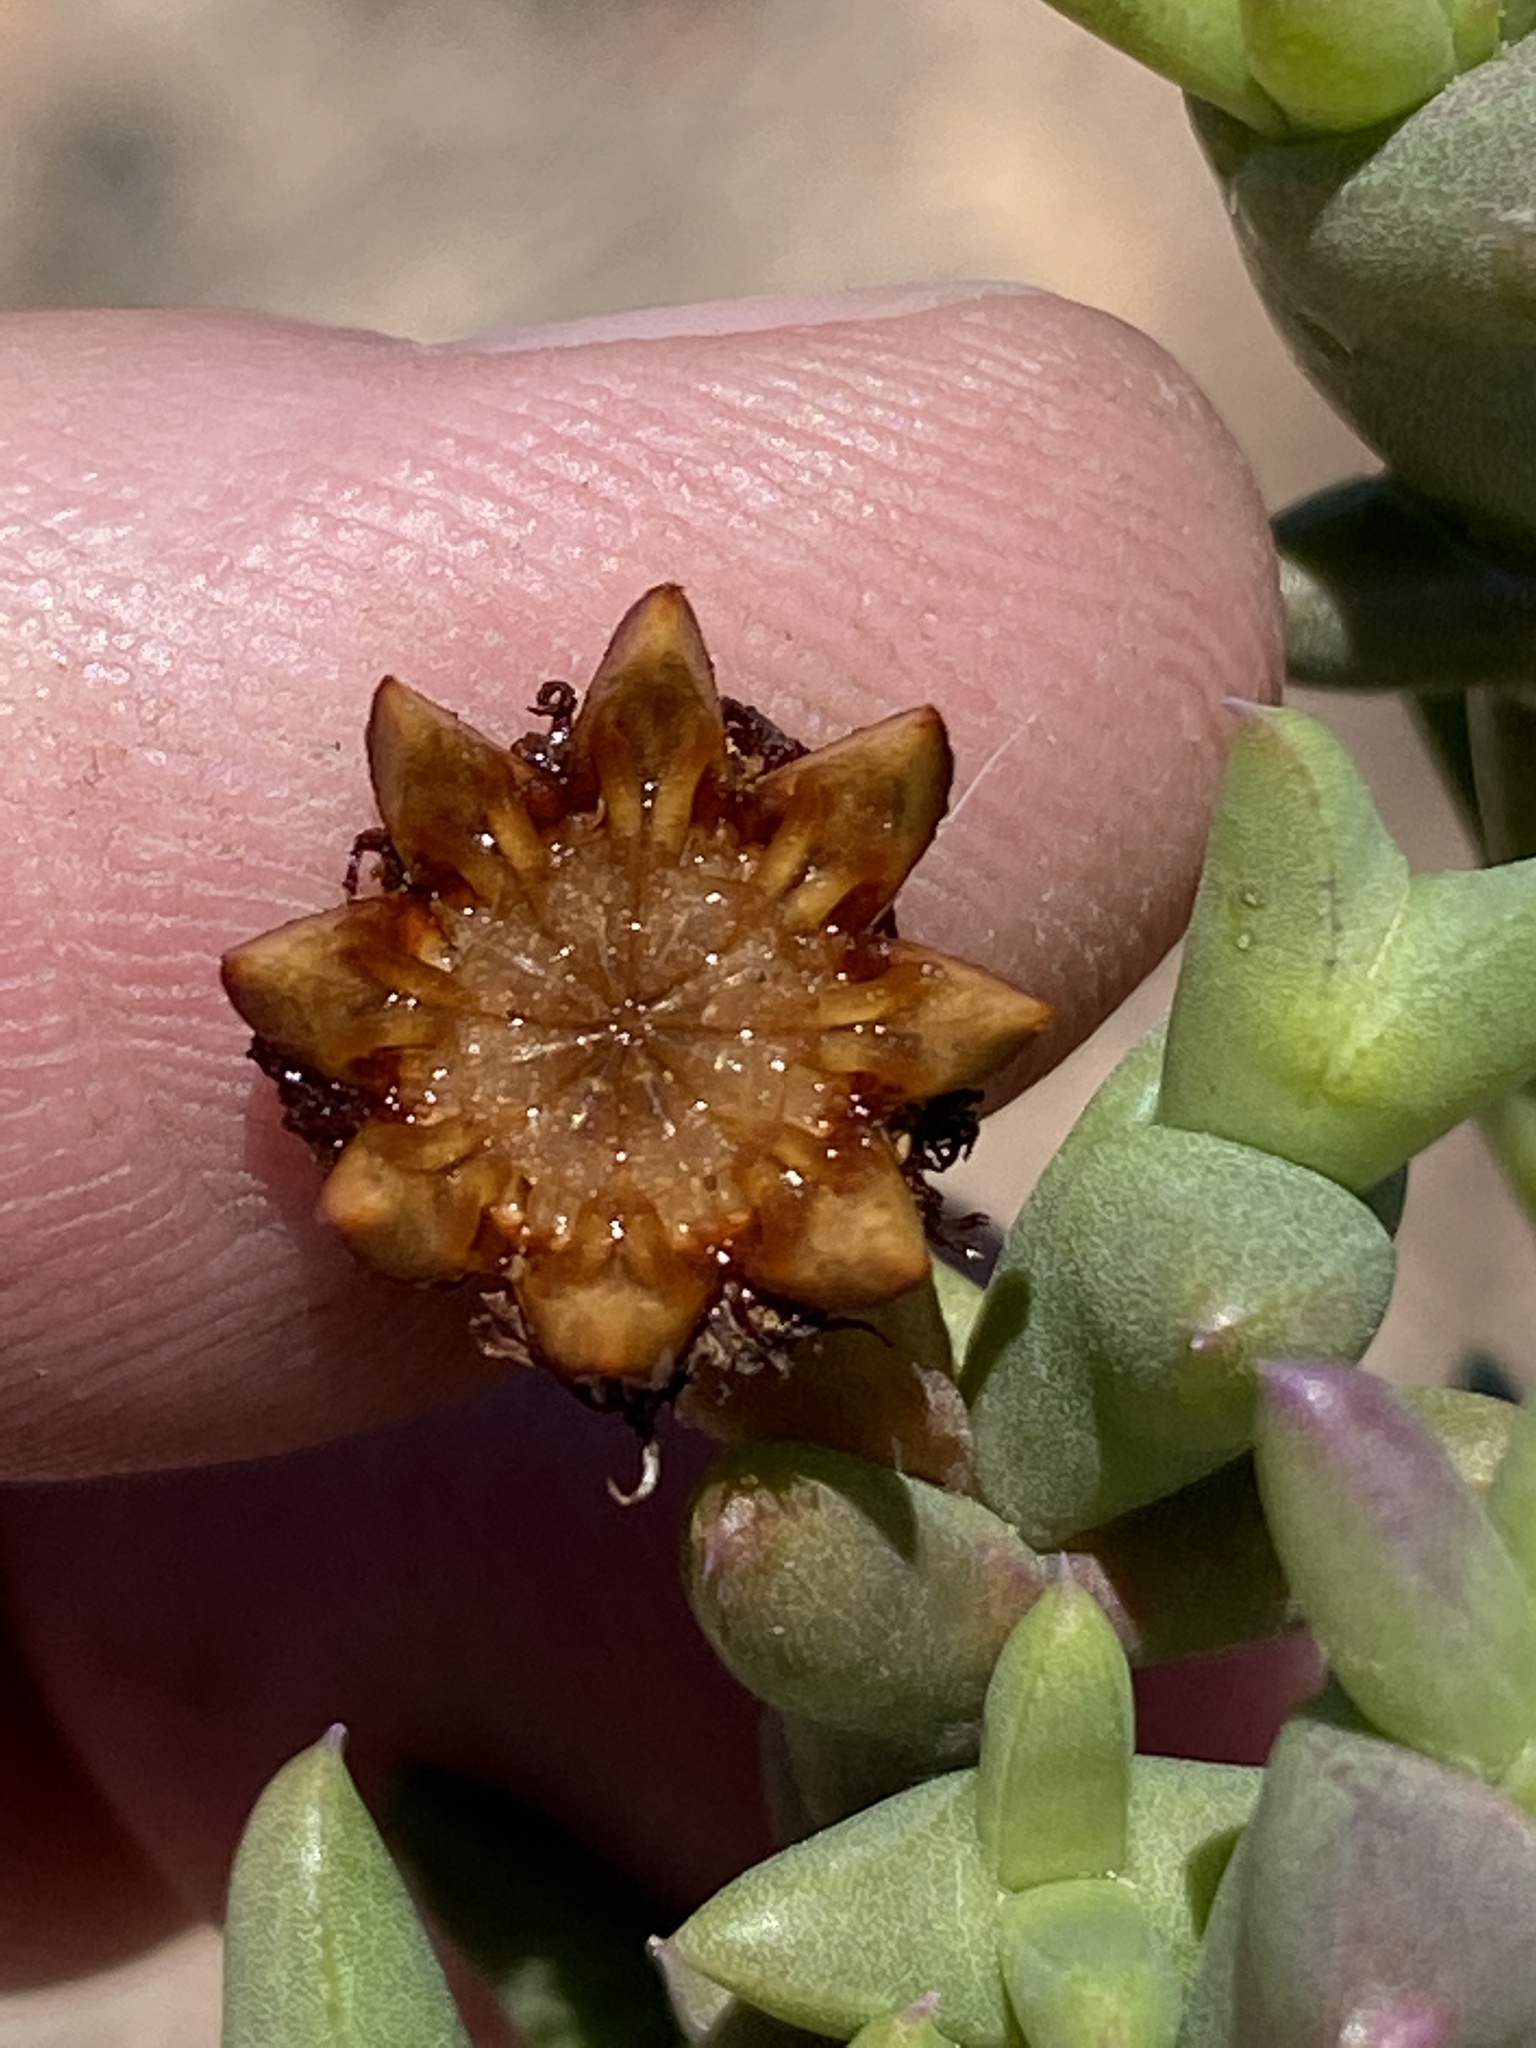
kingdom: Plantae
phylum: Tracheophyta
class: Magnoliopsida
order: Caryophyllales
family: Aizoaceae
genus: Smicrostigma
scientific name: Smicrostigma viride
